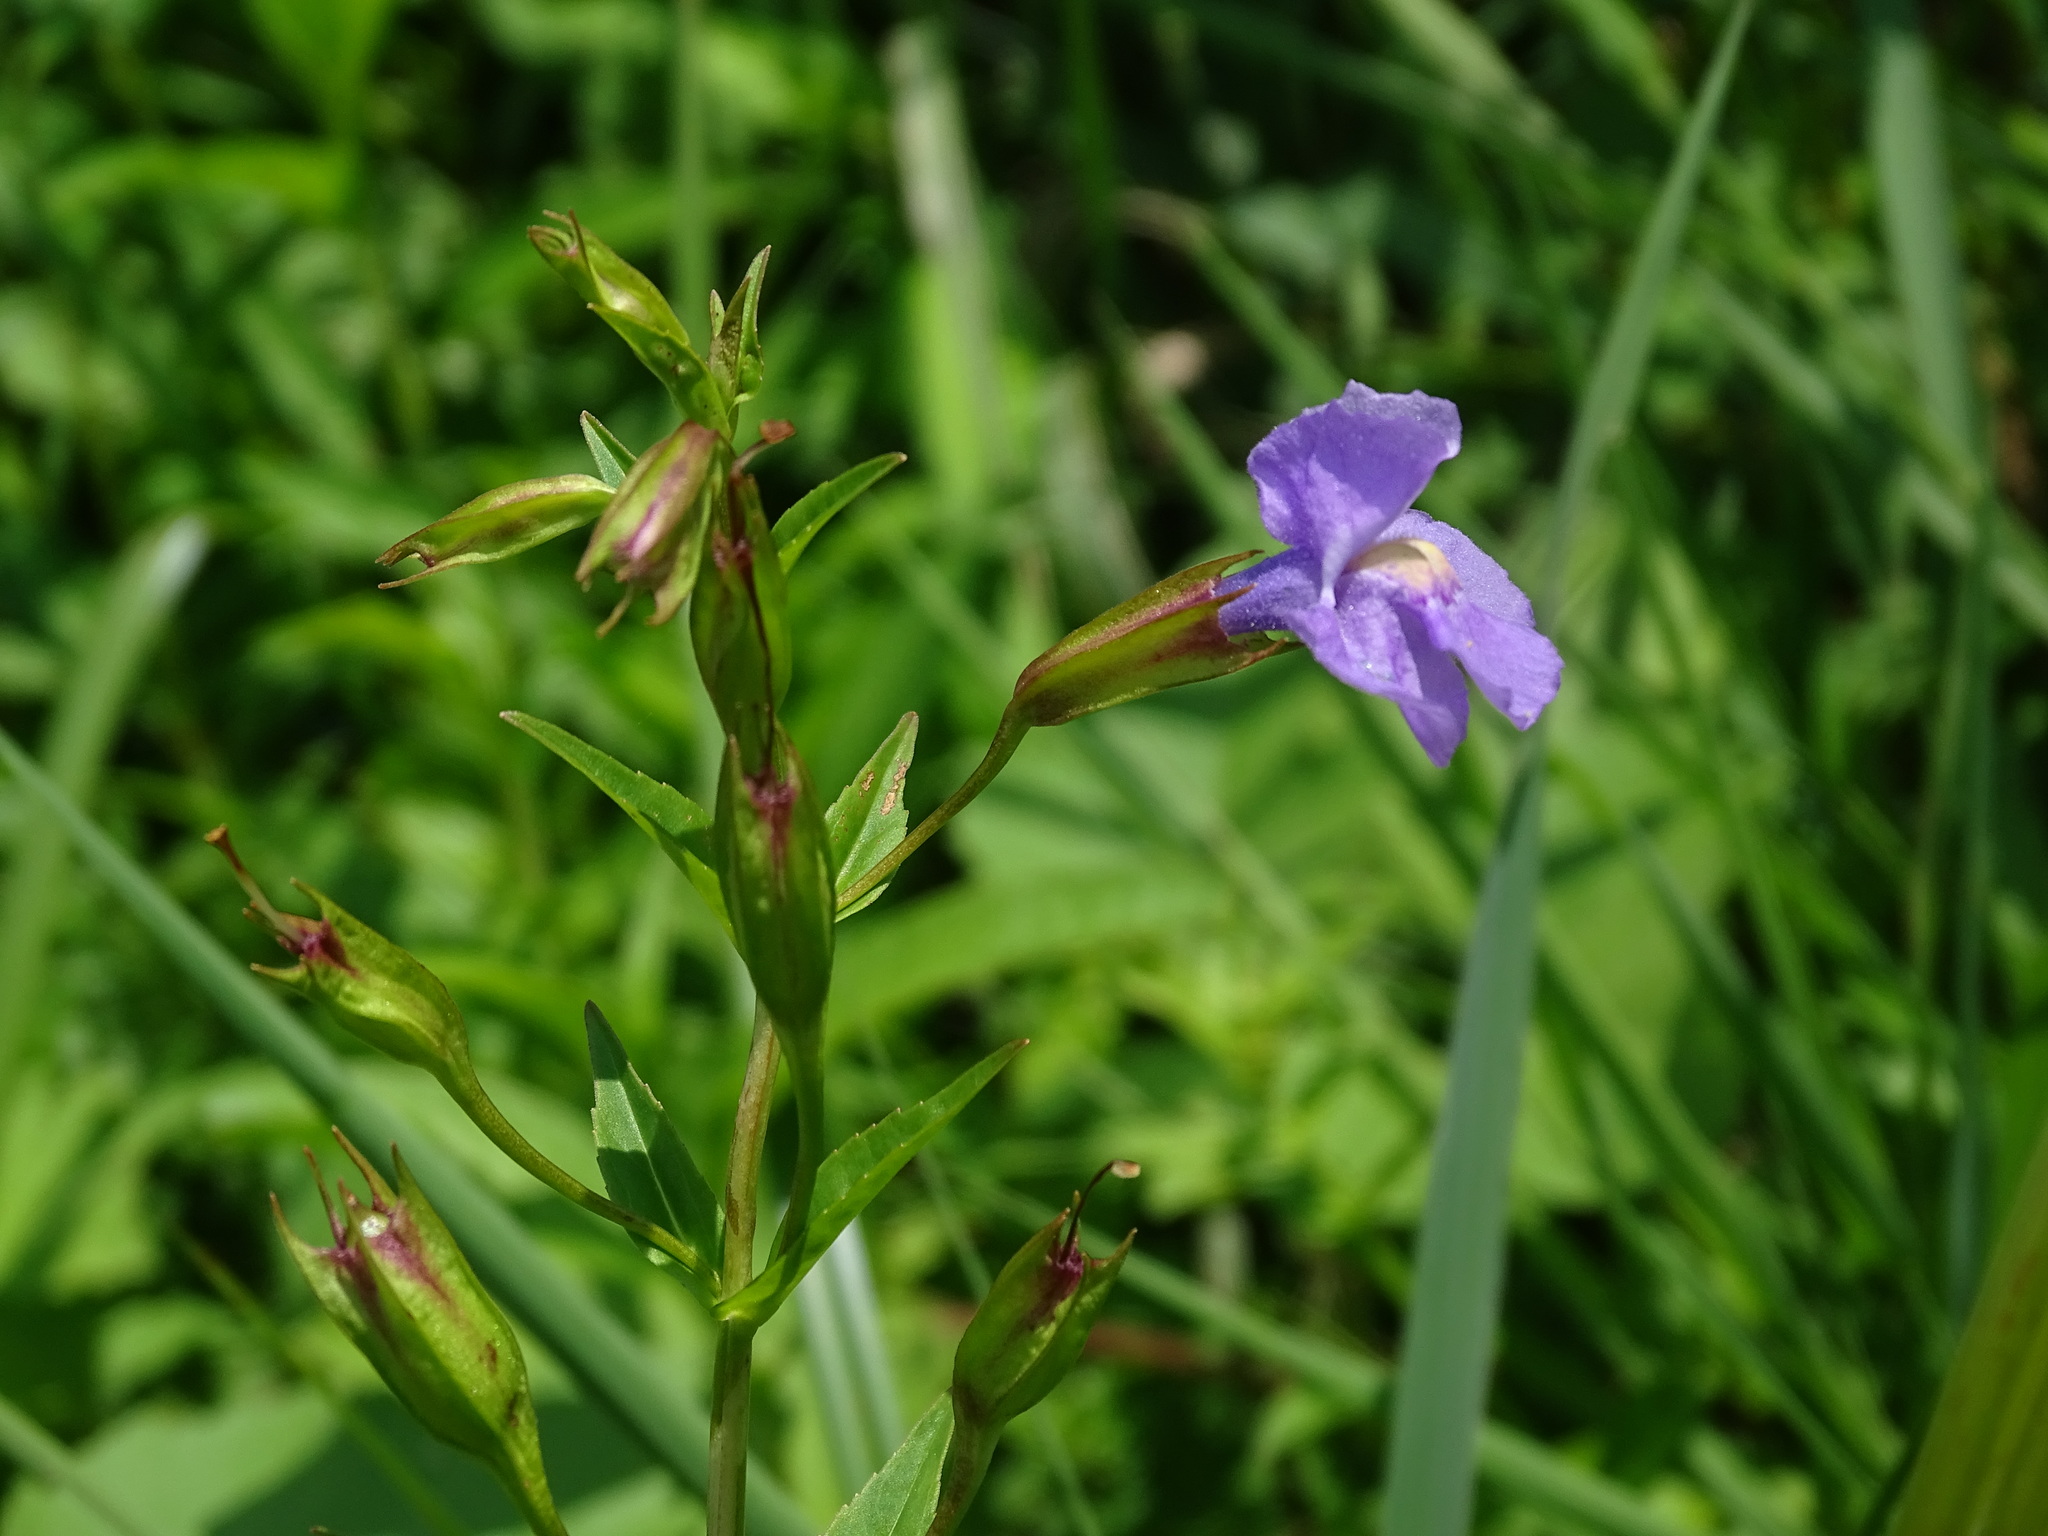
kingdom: Plantae
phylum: Tracheophyta
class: Magnoliopsida
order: Lamiales
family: Phrymaceae
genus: Mimulus
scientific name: Mimulus ringens
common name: Allegheny monkeyflower
